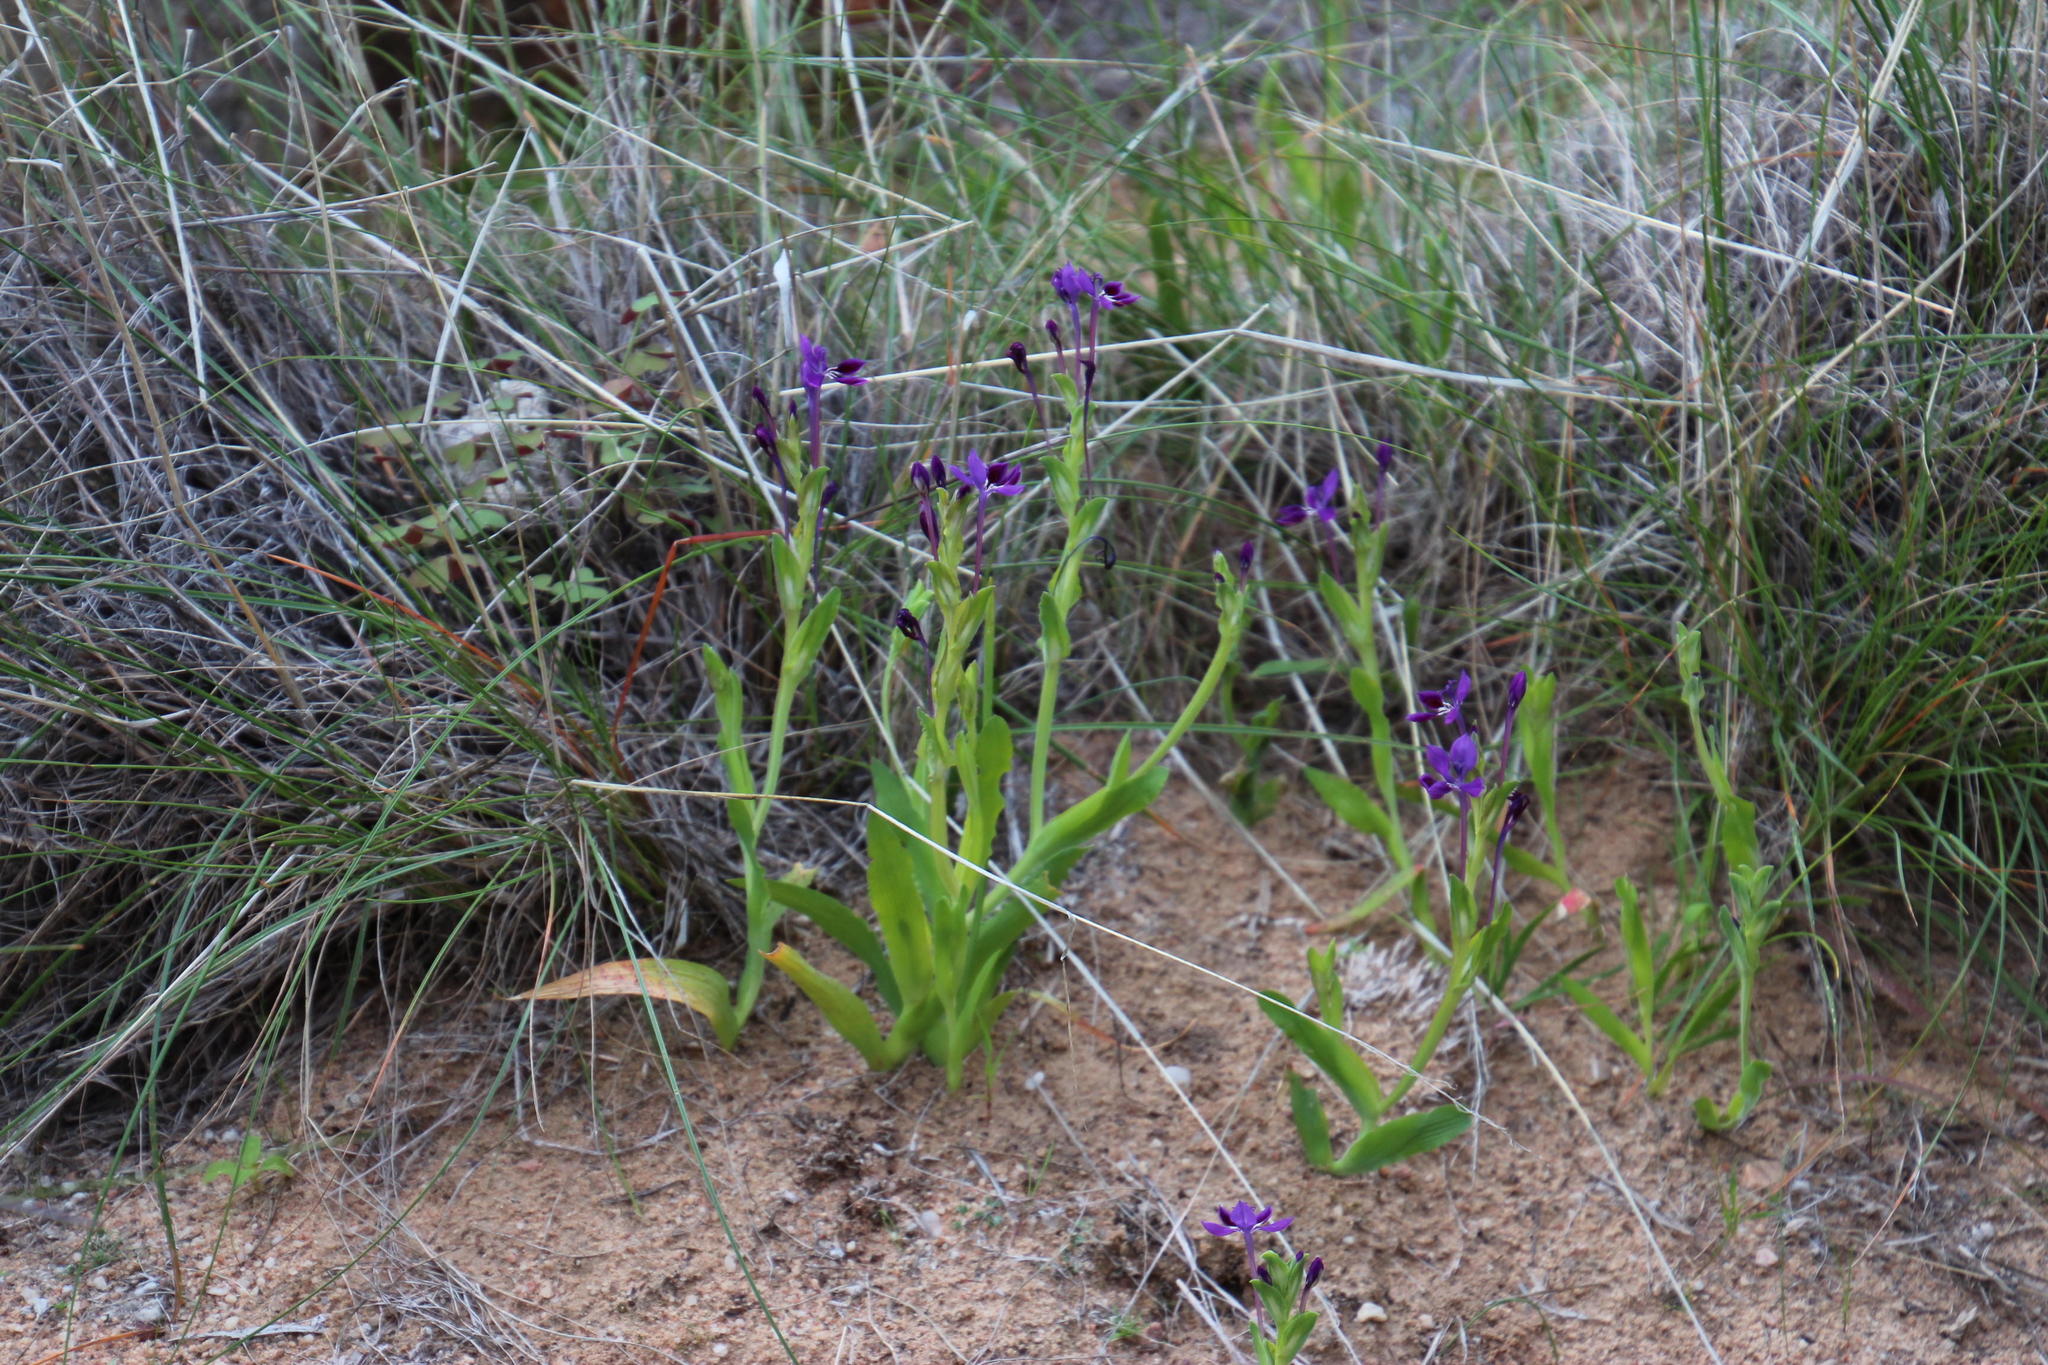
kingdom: Plantae
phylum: Tracheophyta
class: Liliopsida
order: Asparagales
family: Iridaceae
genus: Lapeirousia
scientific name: Lapeirousia jacquinii
